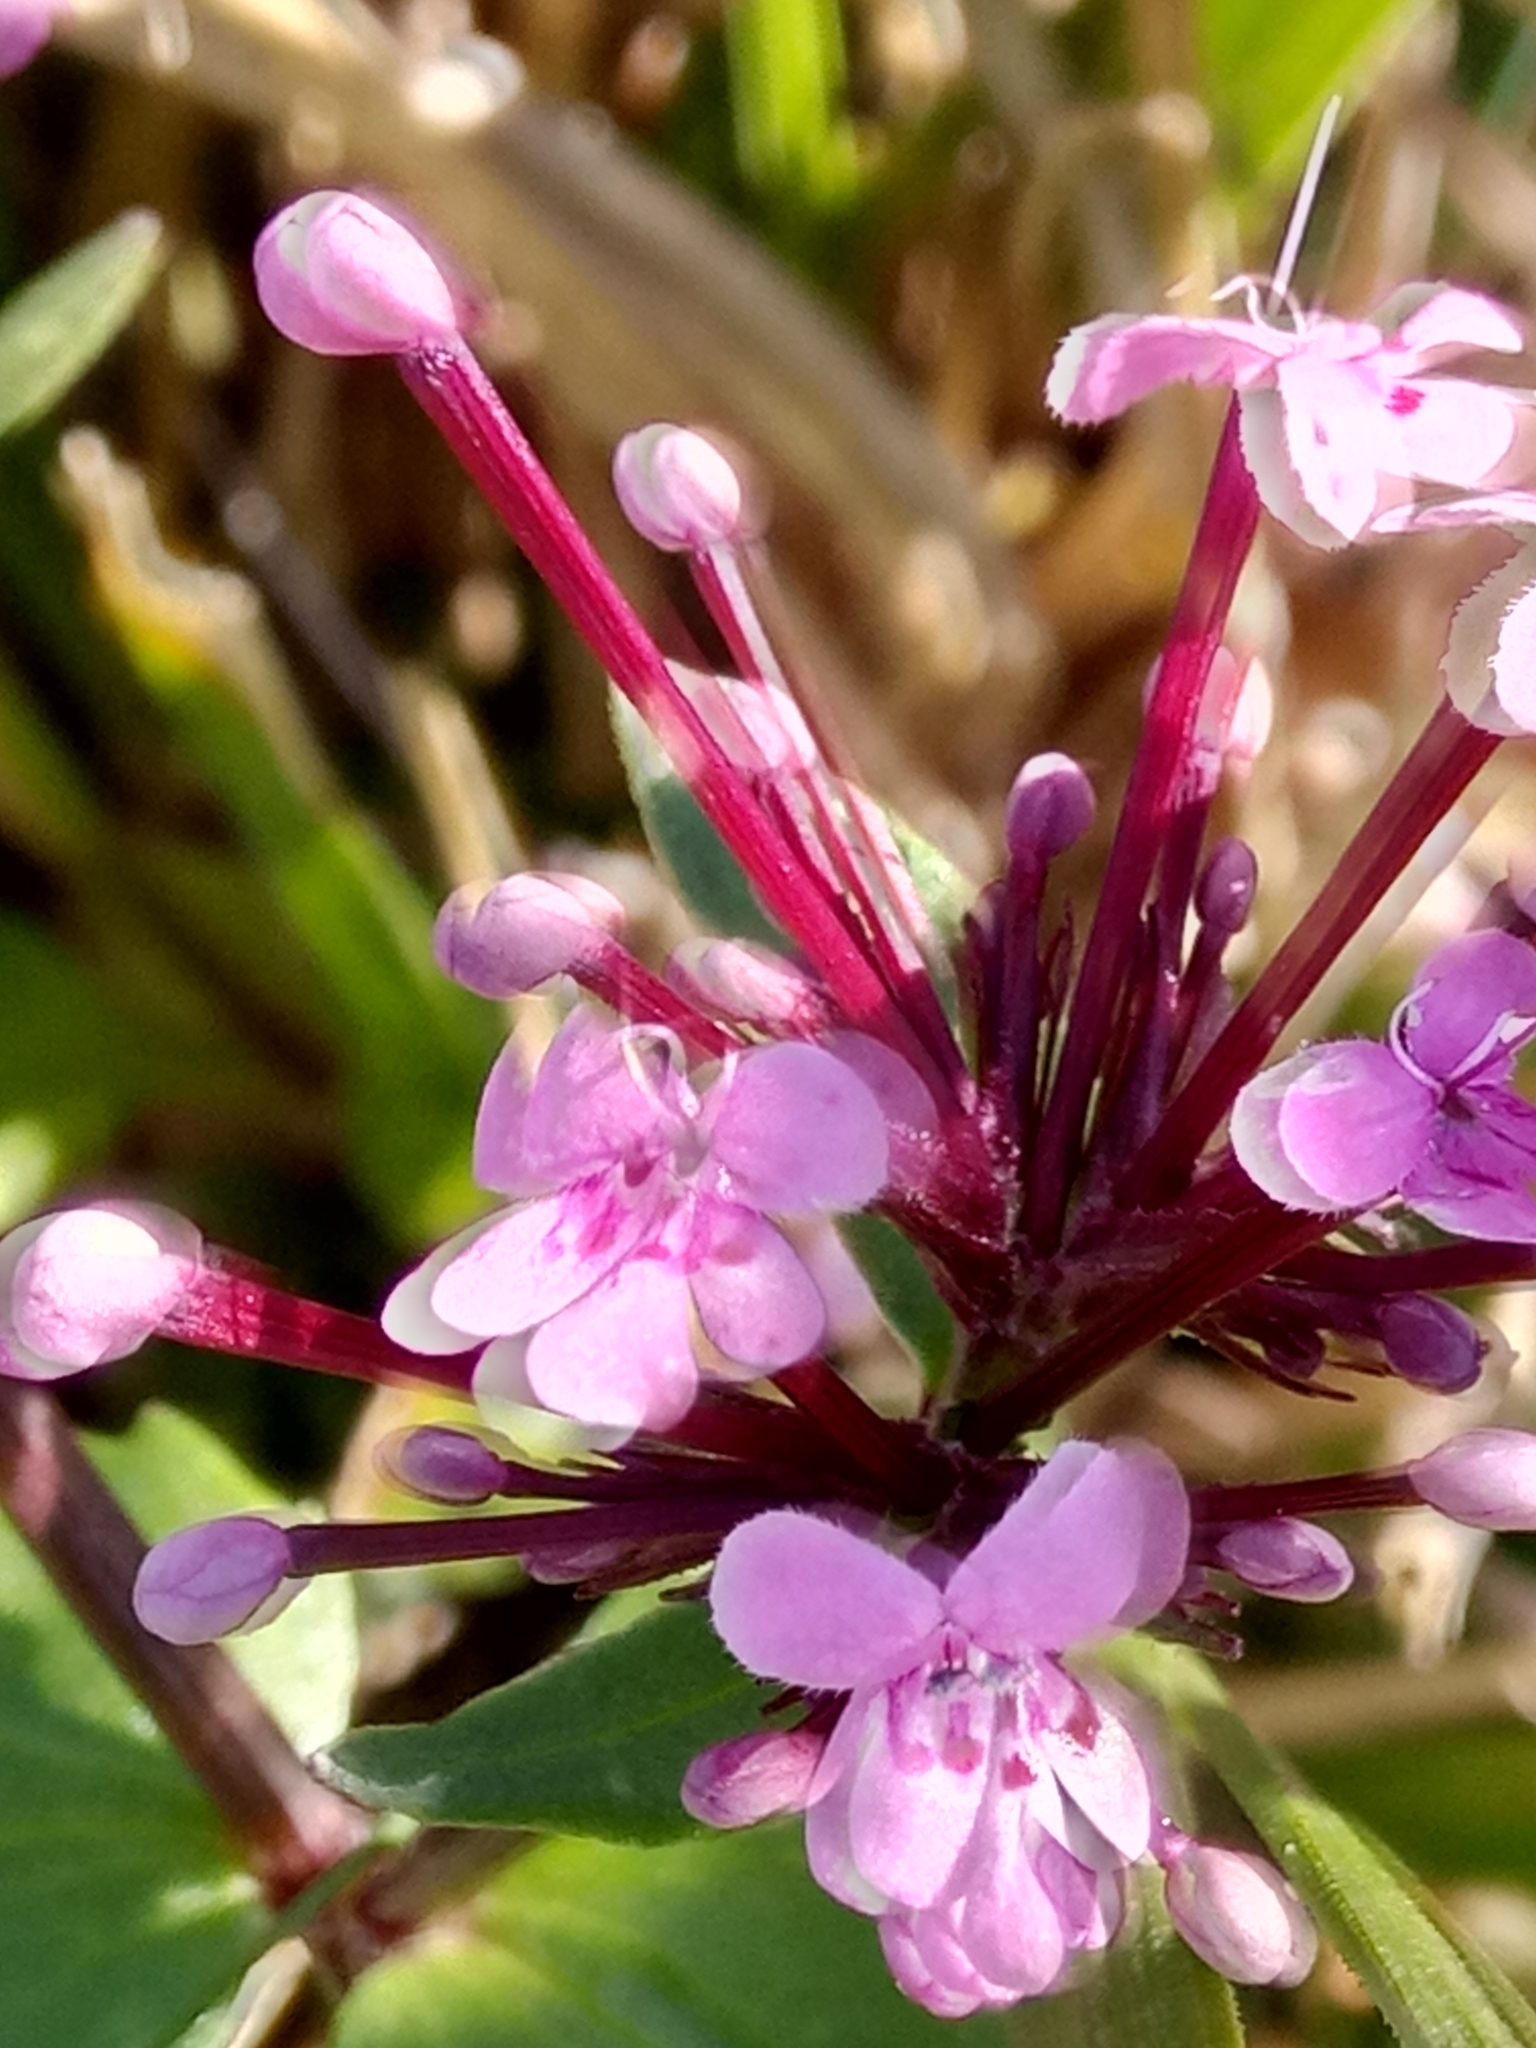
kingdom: Plantae
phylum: Tracheophyta
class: Magnoliopsida
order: Dipsacales
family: Caprifoliaceae
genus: Fedia
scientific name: Fedia graciliflora
